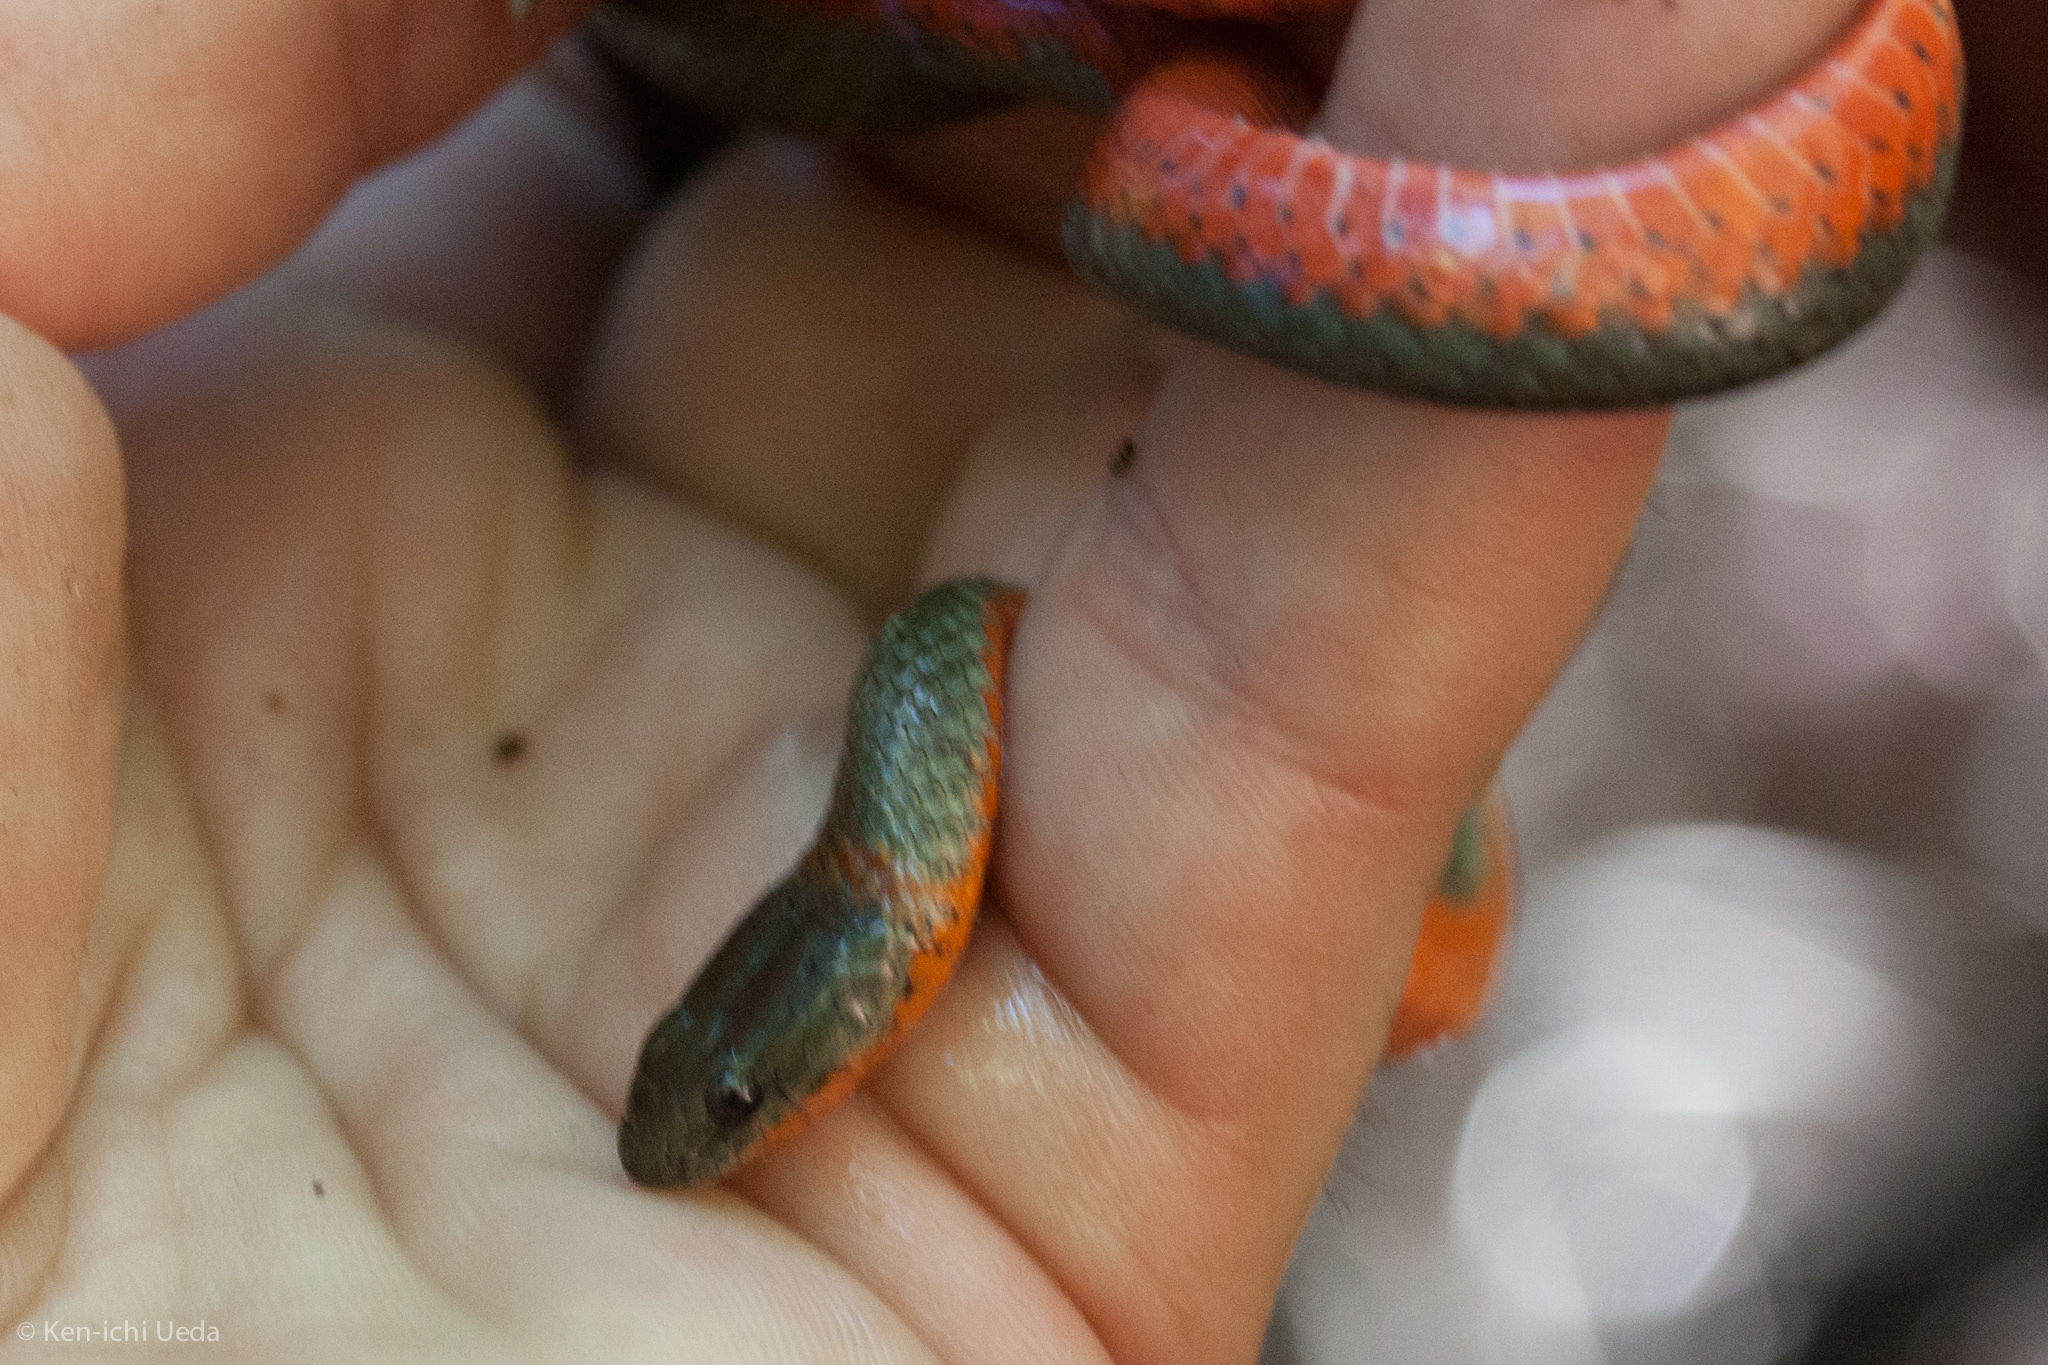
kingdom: Animalia
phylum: Chordata
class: Squamata
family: Colubridae
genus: Diadophis
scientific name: Diadophis punctatus
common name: Ringneck snake
